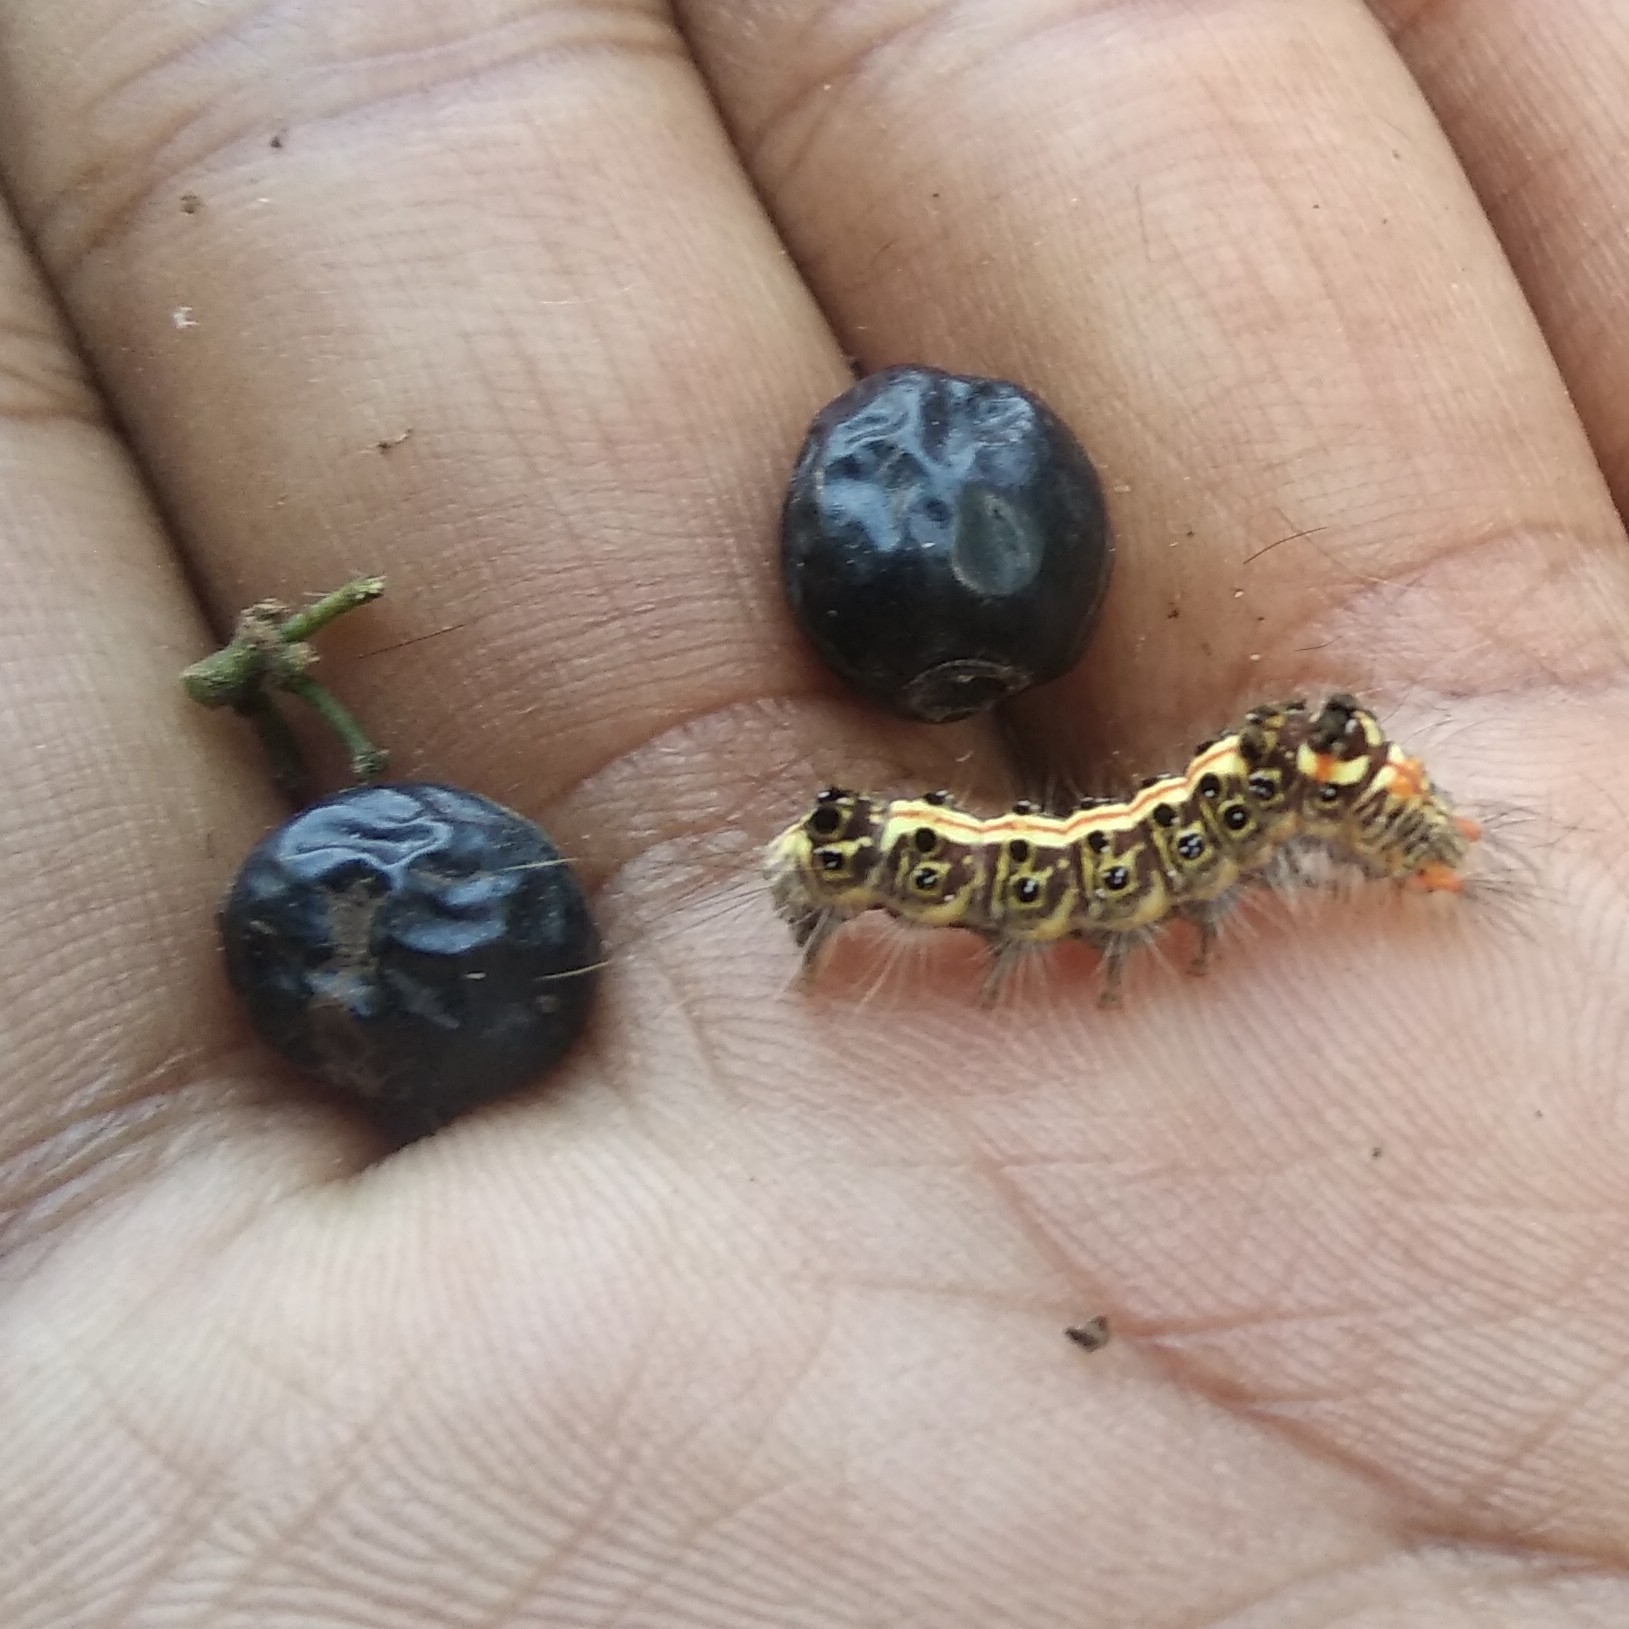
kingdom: Plantae
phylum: Tracheophyta
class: Magnoliopsida
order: Rosales
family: Rhamnaceae
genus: Ziziphus
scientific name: Ziziphus oenopolia
